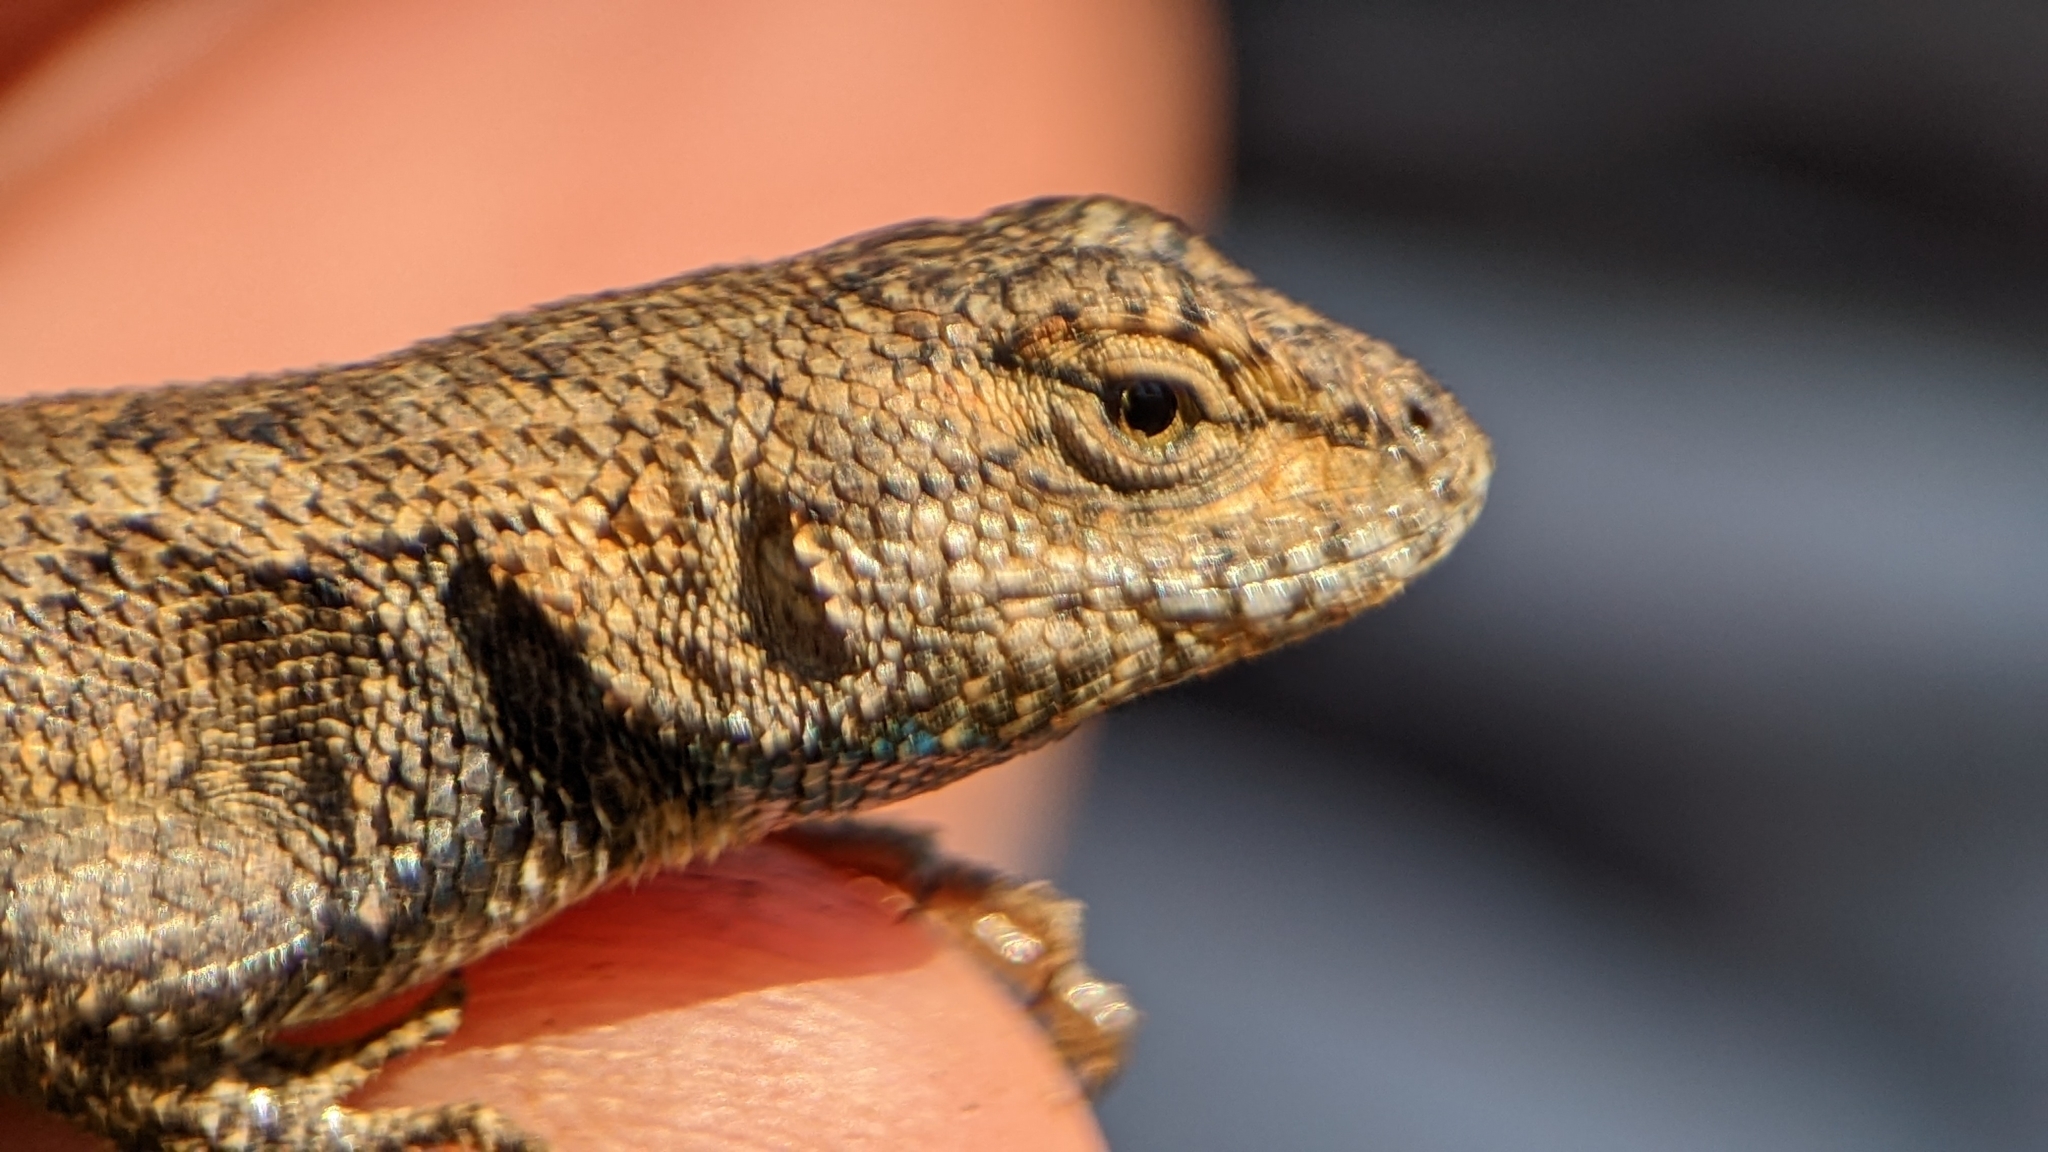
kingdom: Animalia
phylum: Chordata
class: Squamata
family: Phrynosomatidae
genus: Sceloporus
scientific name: Sceloporus consobrinus
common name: Southern prairie lizard
